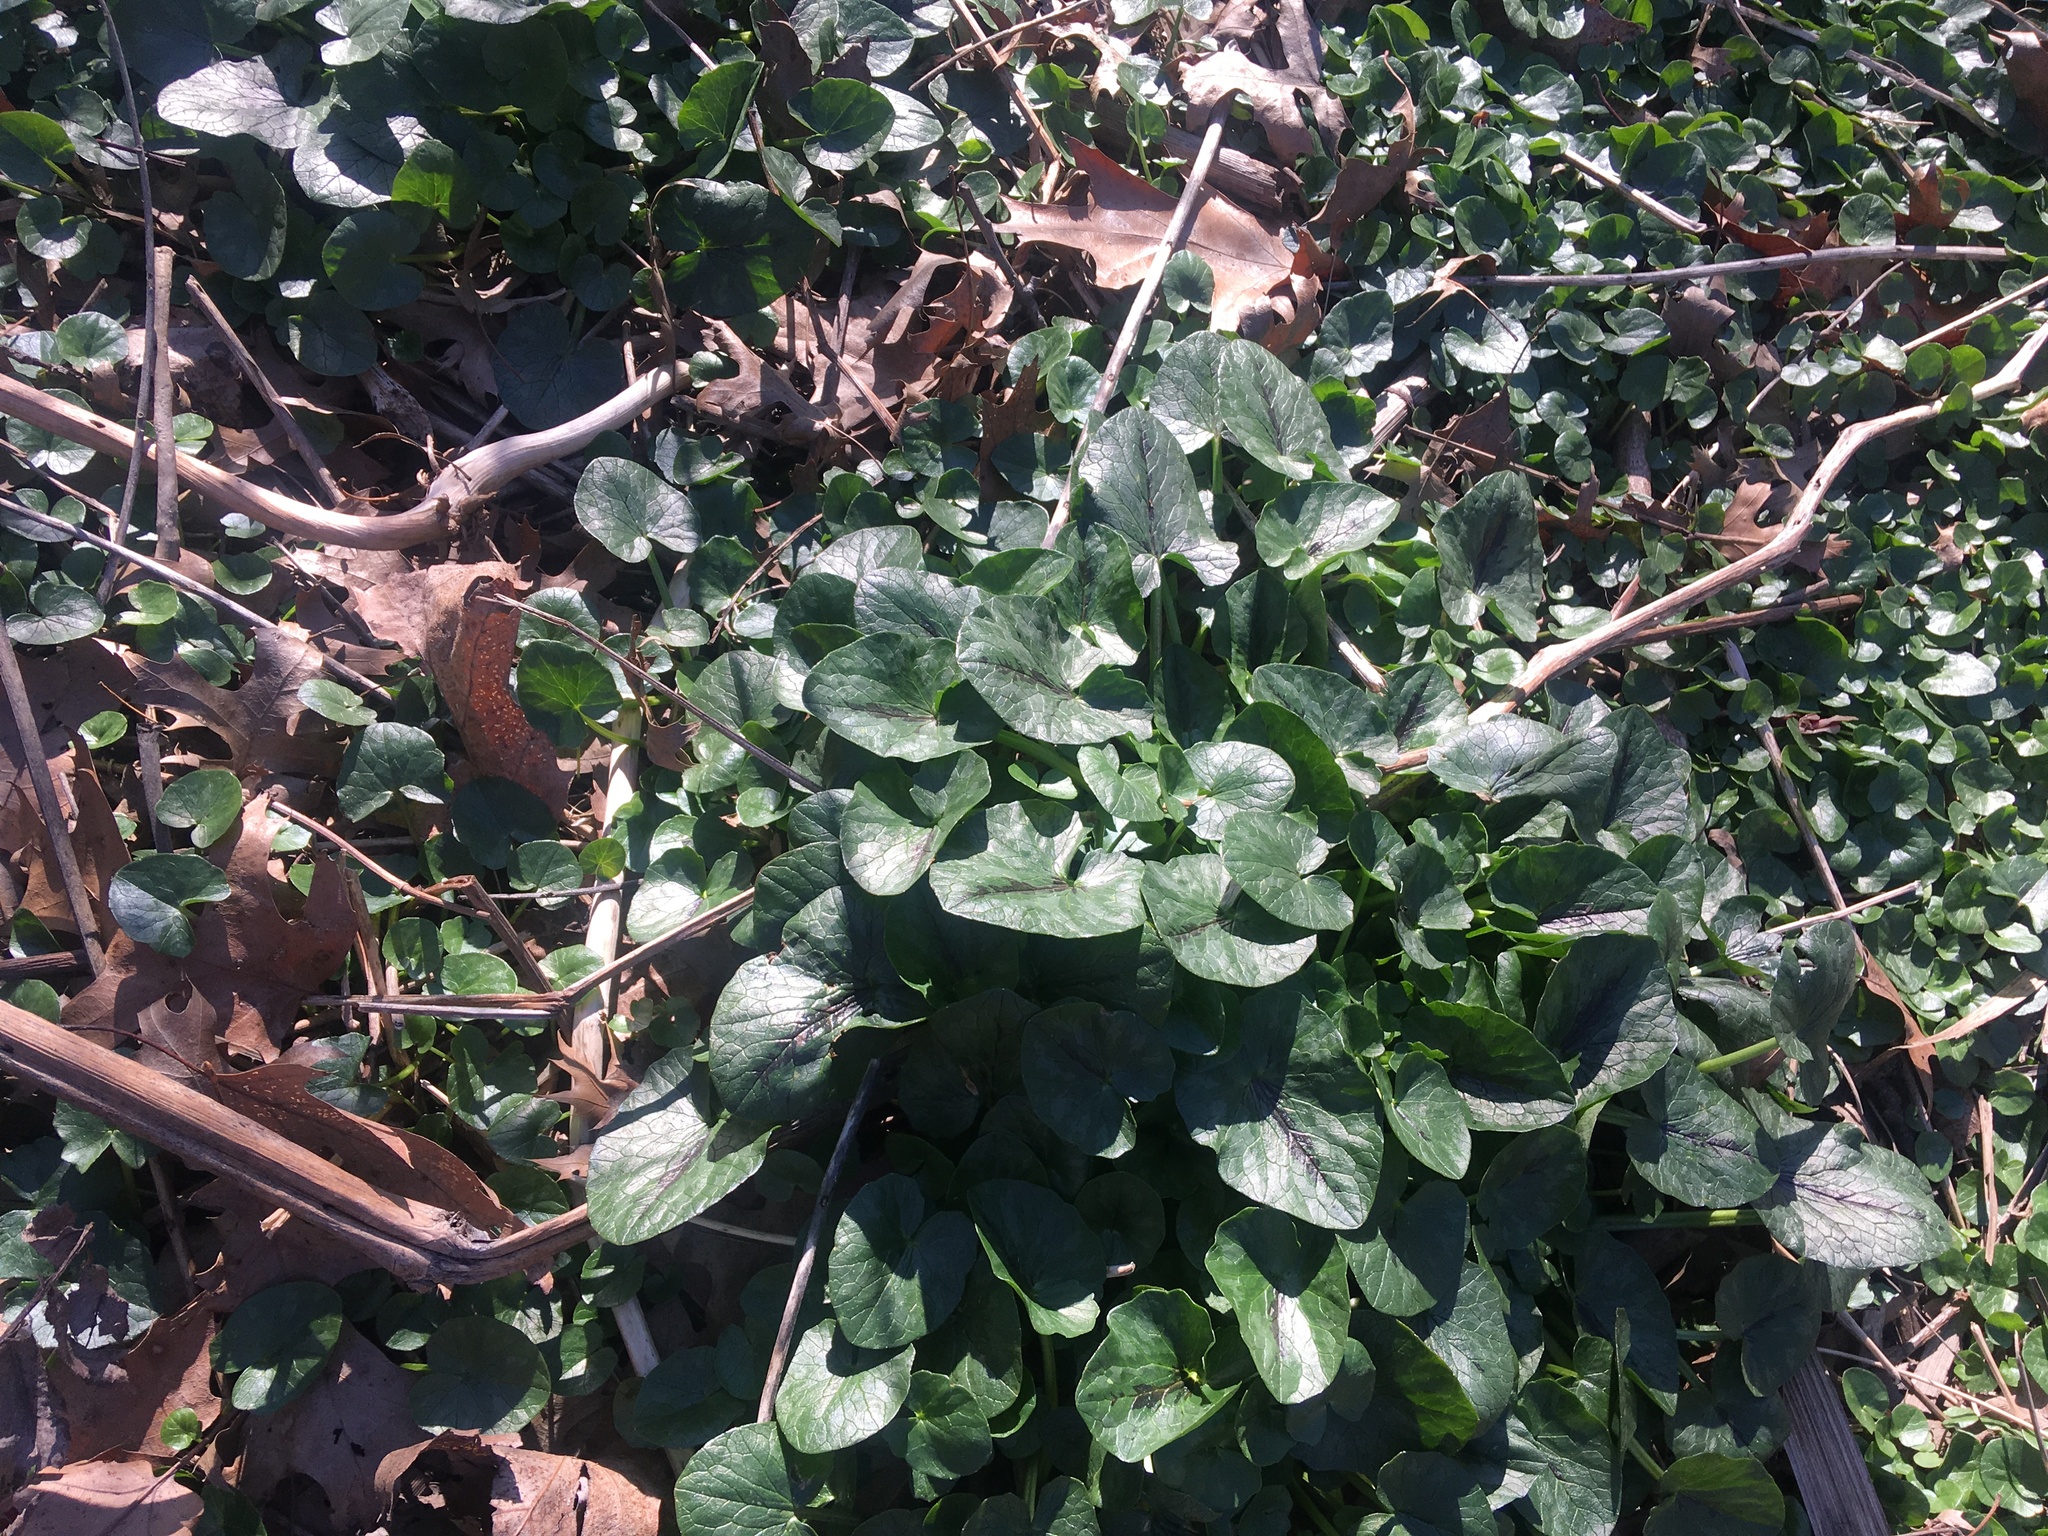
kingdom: Plantae
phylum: Tracheophyta
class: Magnoliopsida
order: Ranunculales
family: Ranunculaceae
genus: Ficaria
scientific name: Ficaria verna
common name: Lesser celandine
